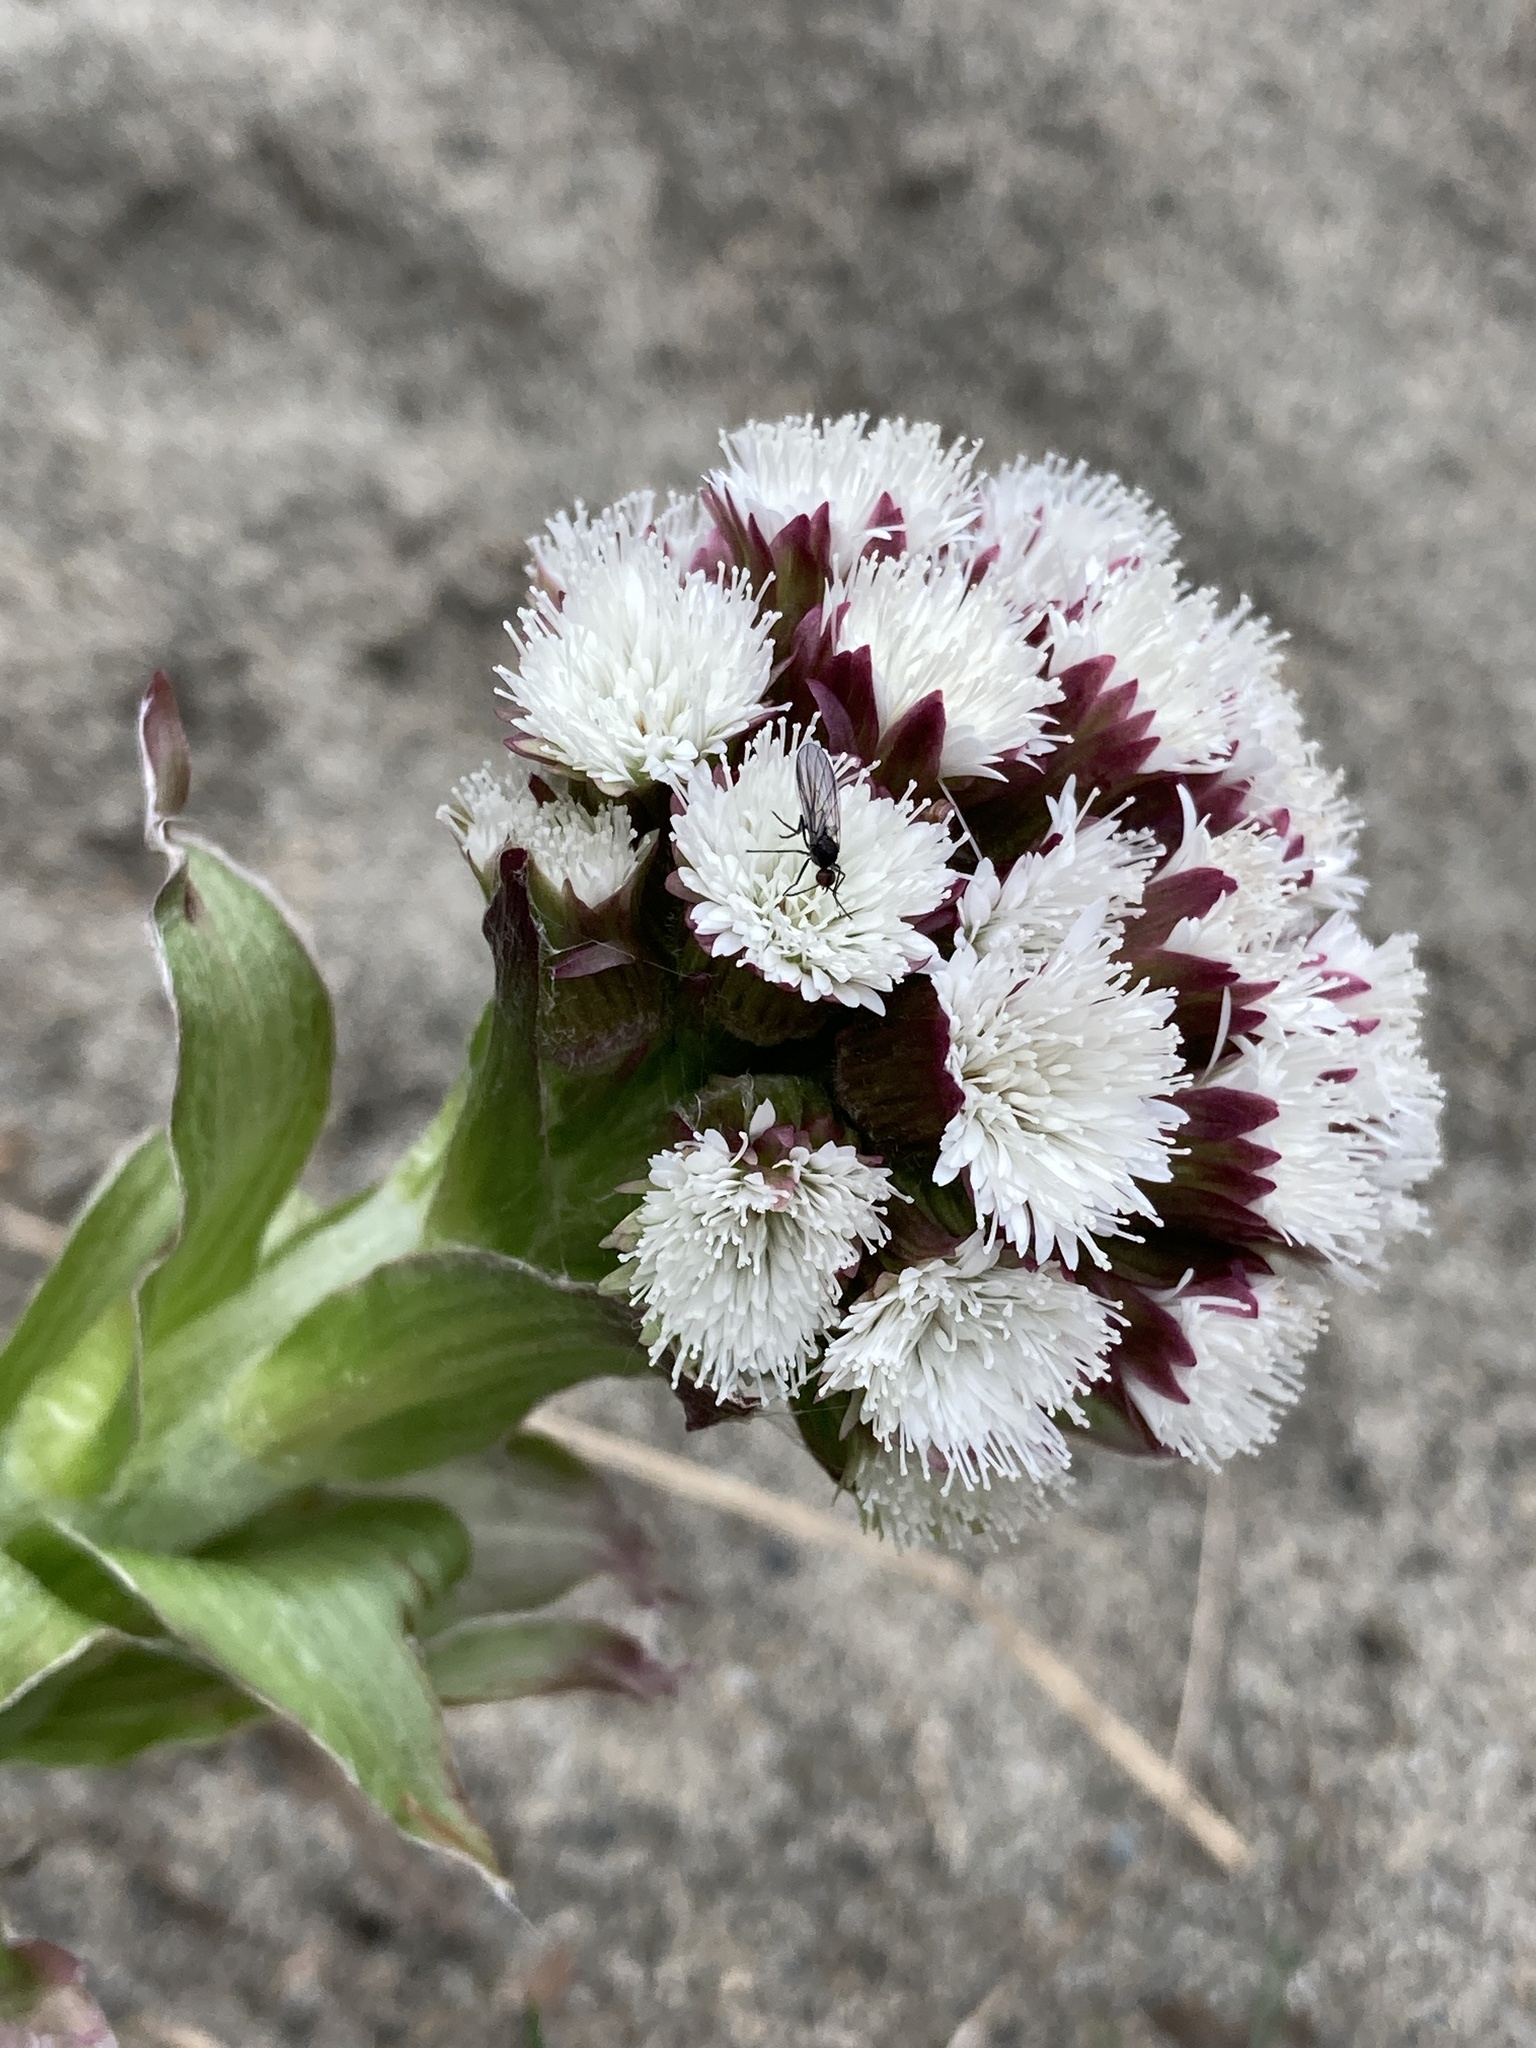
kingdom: Plantae
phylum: Tracheophyta
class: Magnoliopsida
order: Asterales
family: Asteraceae
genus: Petasites
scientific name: Petasites frigidus
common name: Arctic butterbur
